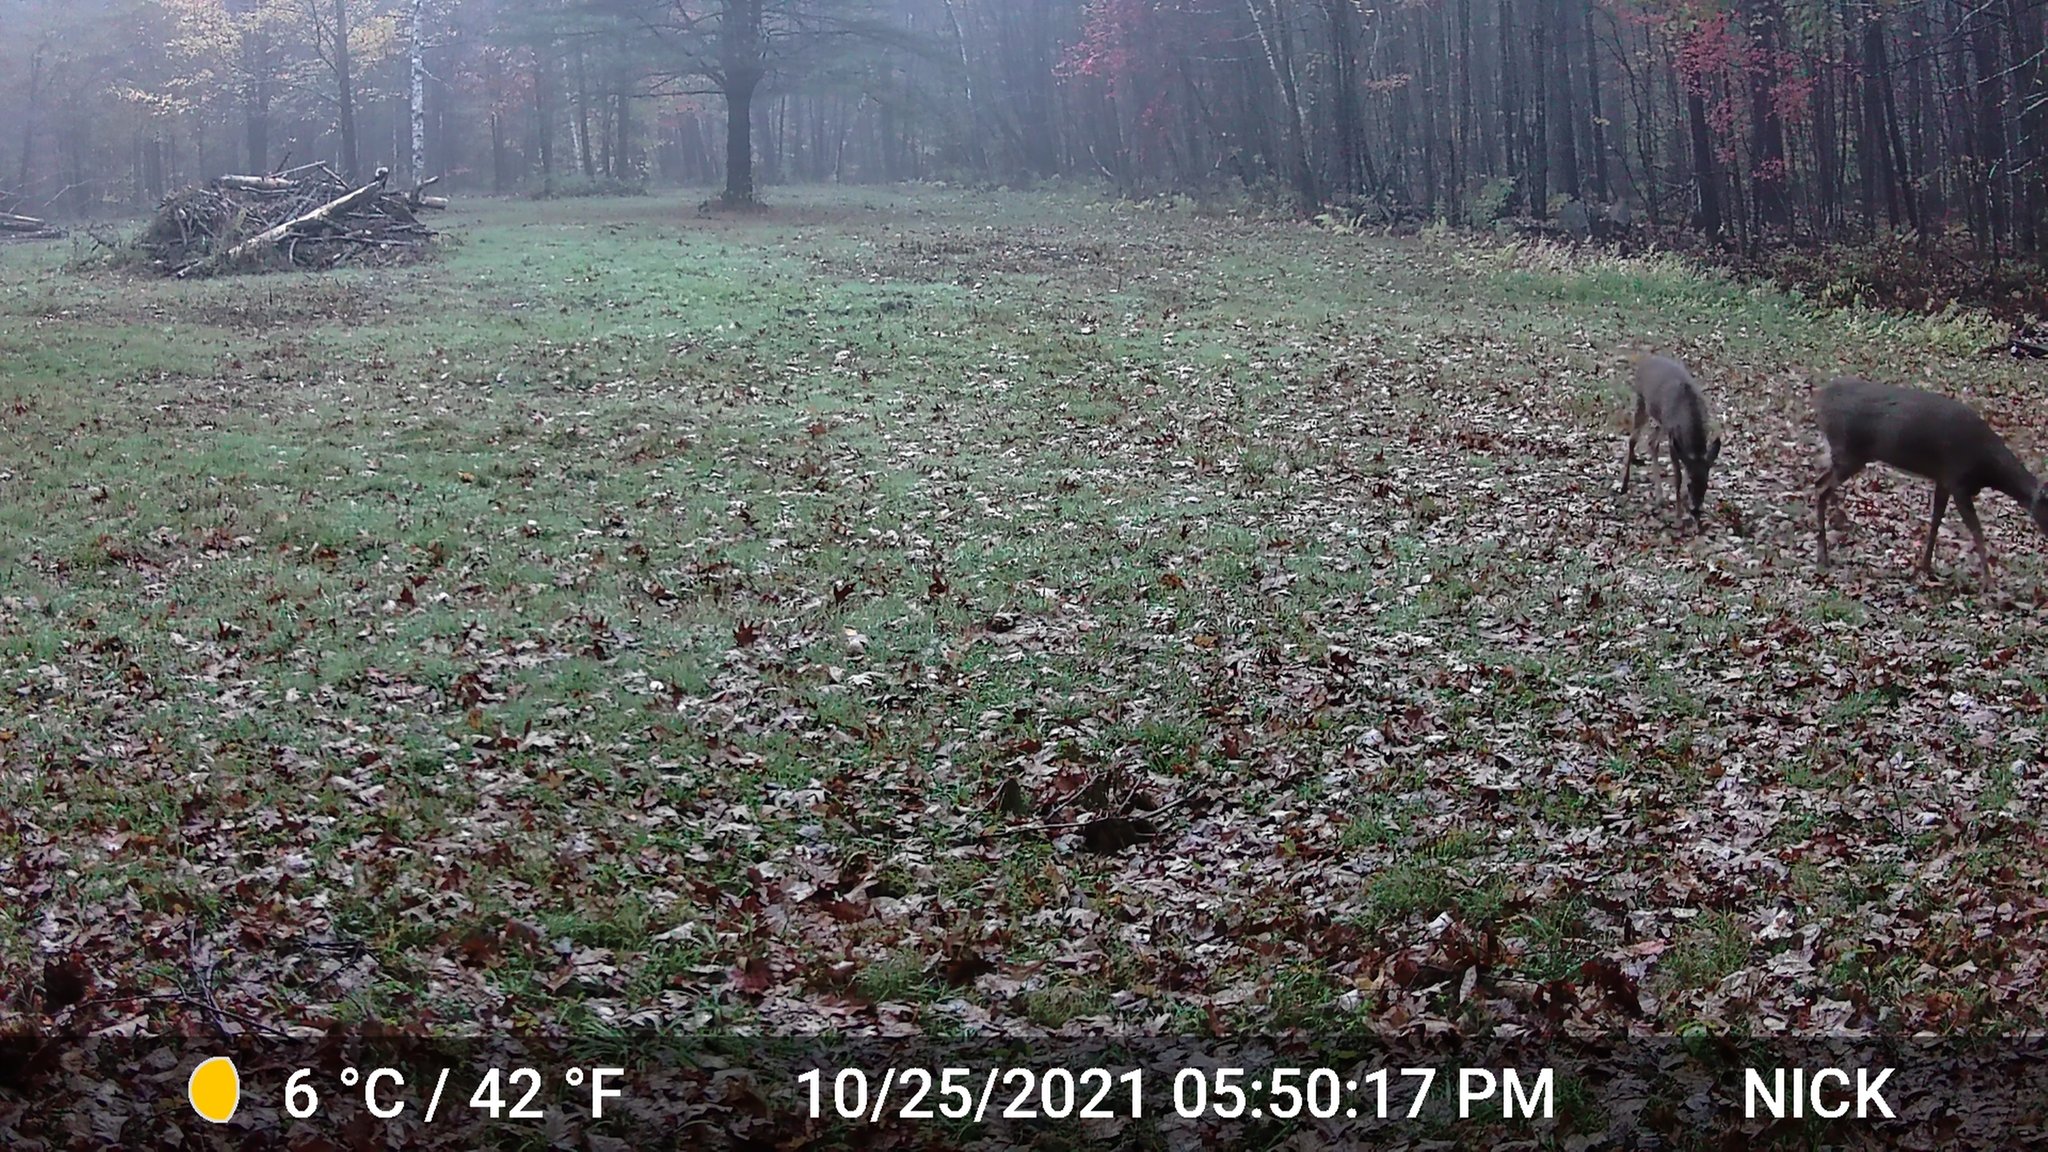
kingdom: Animalia
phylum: Chordata
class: Mammalia
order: Artiodactyla
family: Cervidae
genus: Odocoileus
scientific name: Odocoileus virginianus
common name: White-tailed deer
